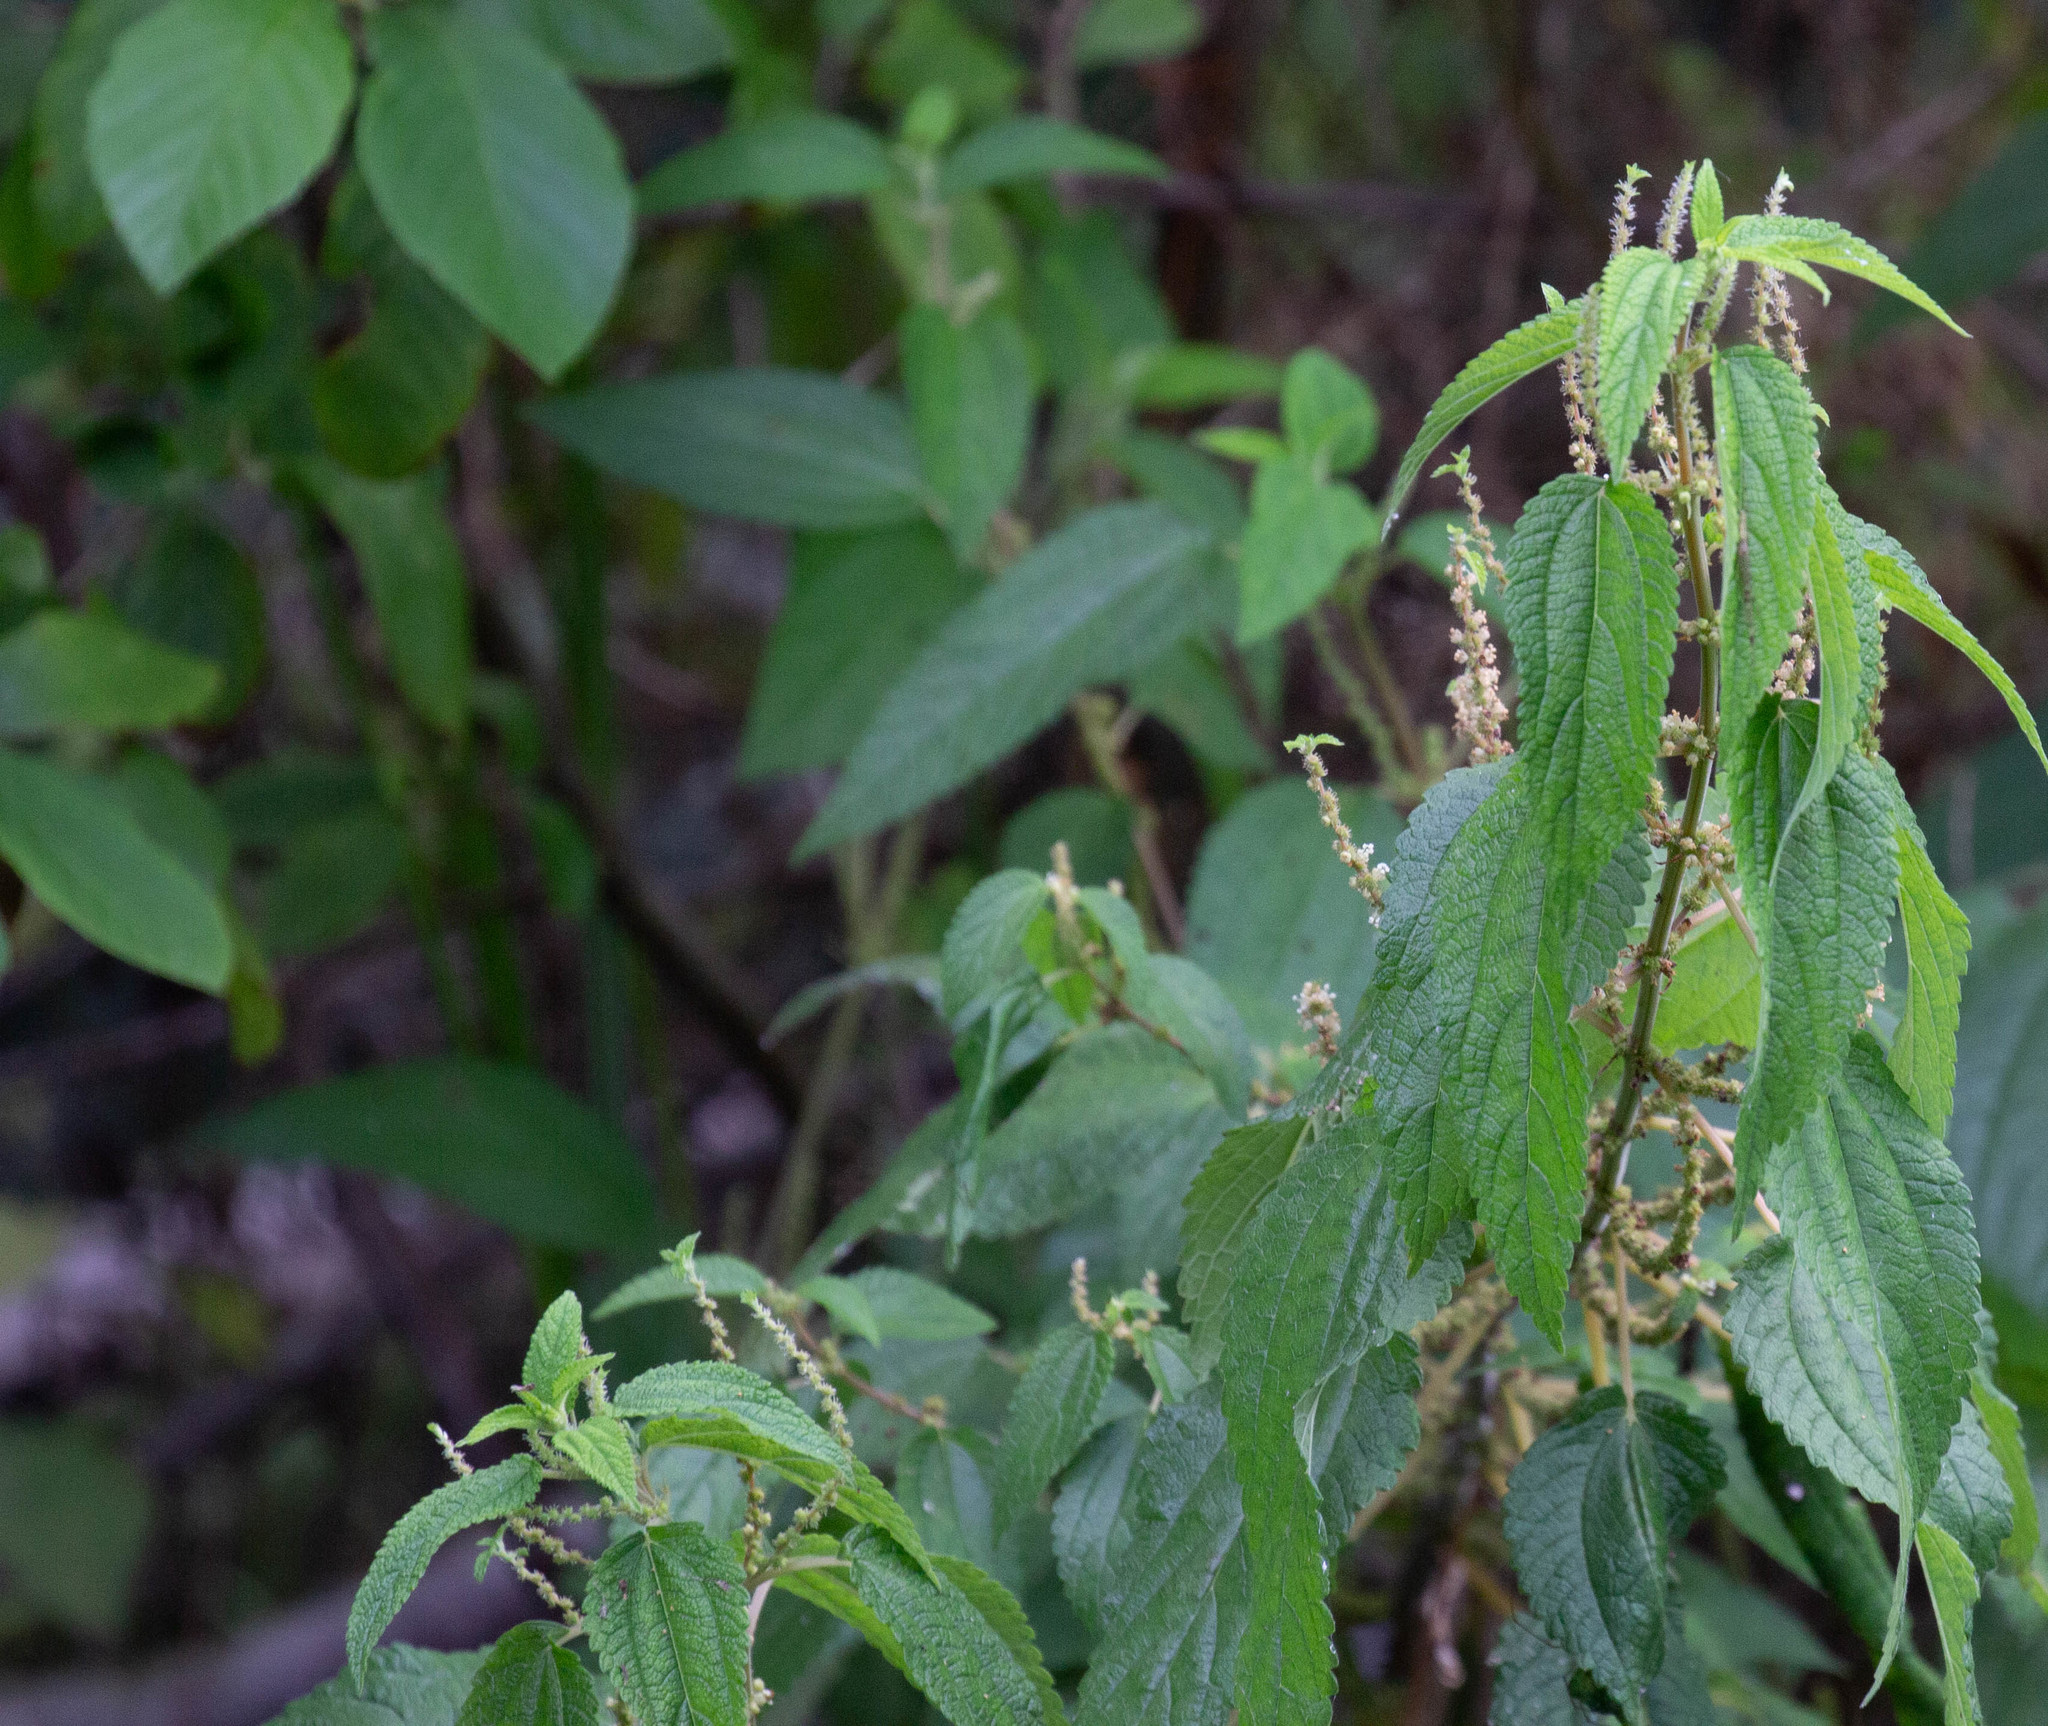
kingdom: Plantae
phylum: Tracheophyta
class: Magnoliopsida
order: Rosales
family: Urticaceae
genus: Boehmeria
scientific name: Boehmeria cylindrica
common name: Bog-hemp
